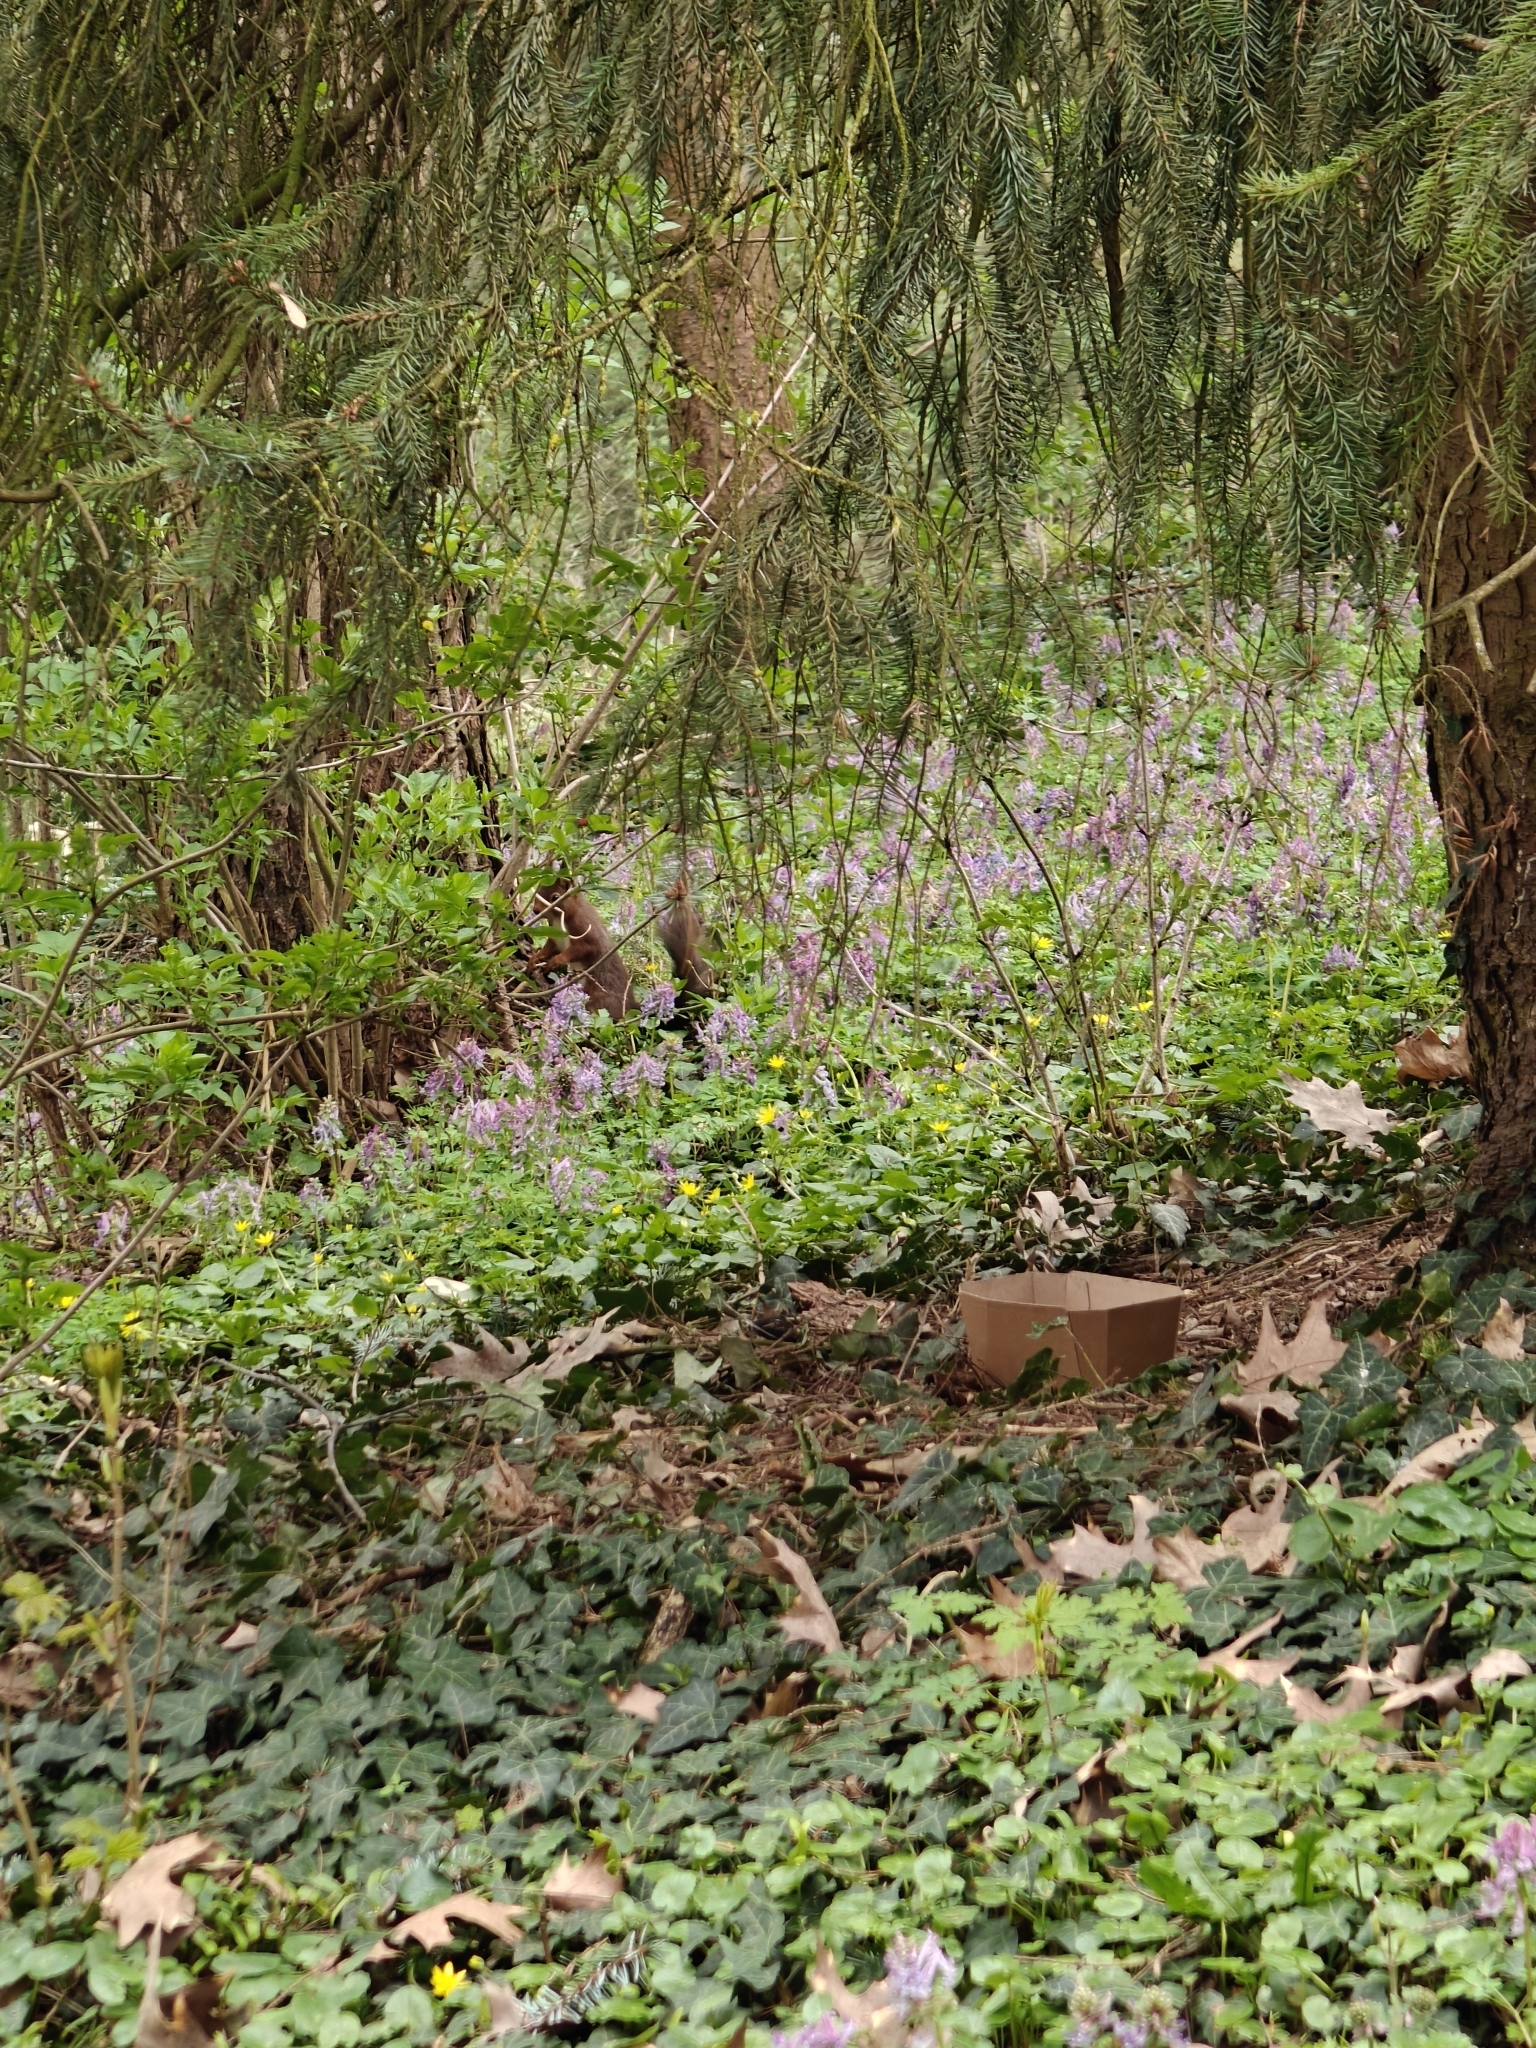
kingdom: Animalia
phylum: Chordata
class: Mammalia
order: Rodentia
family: Sciuridae
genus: Sciurus
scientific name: Sciurus vulgaris
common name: Eurasian red squirrel
